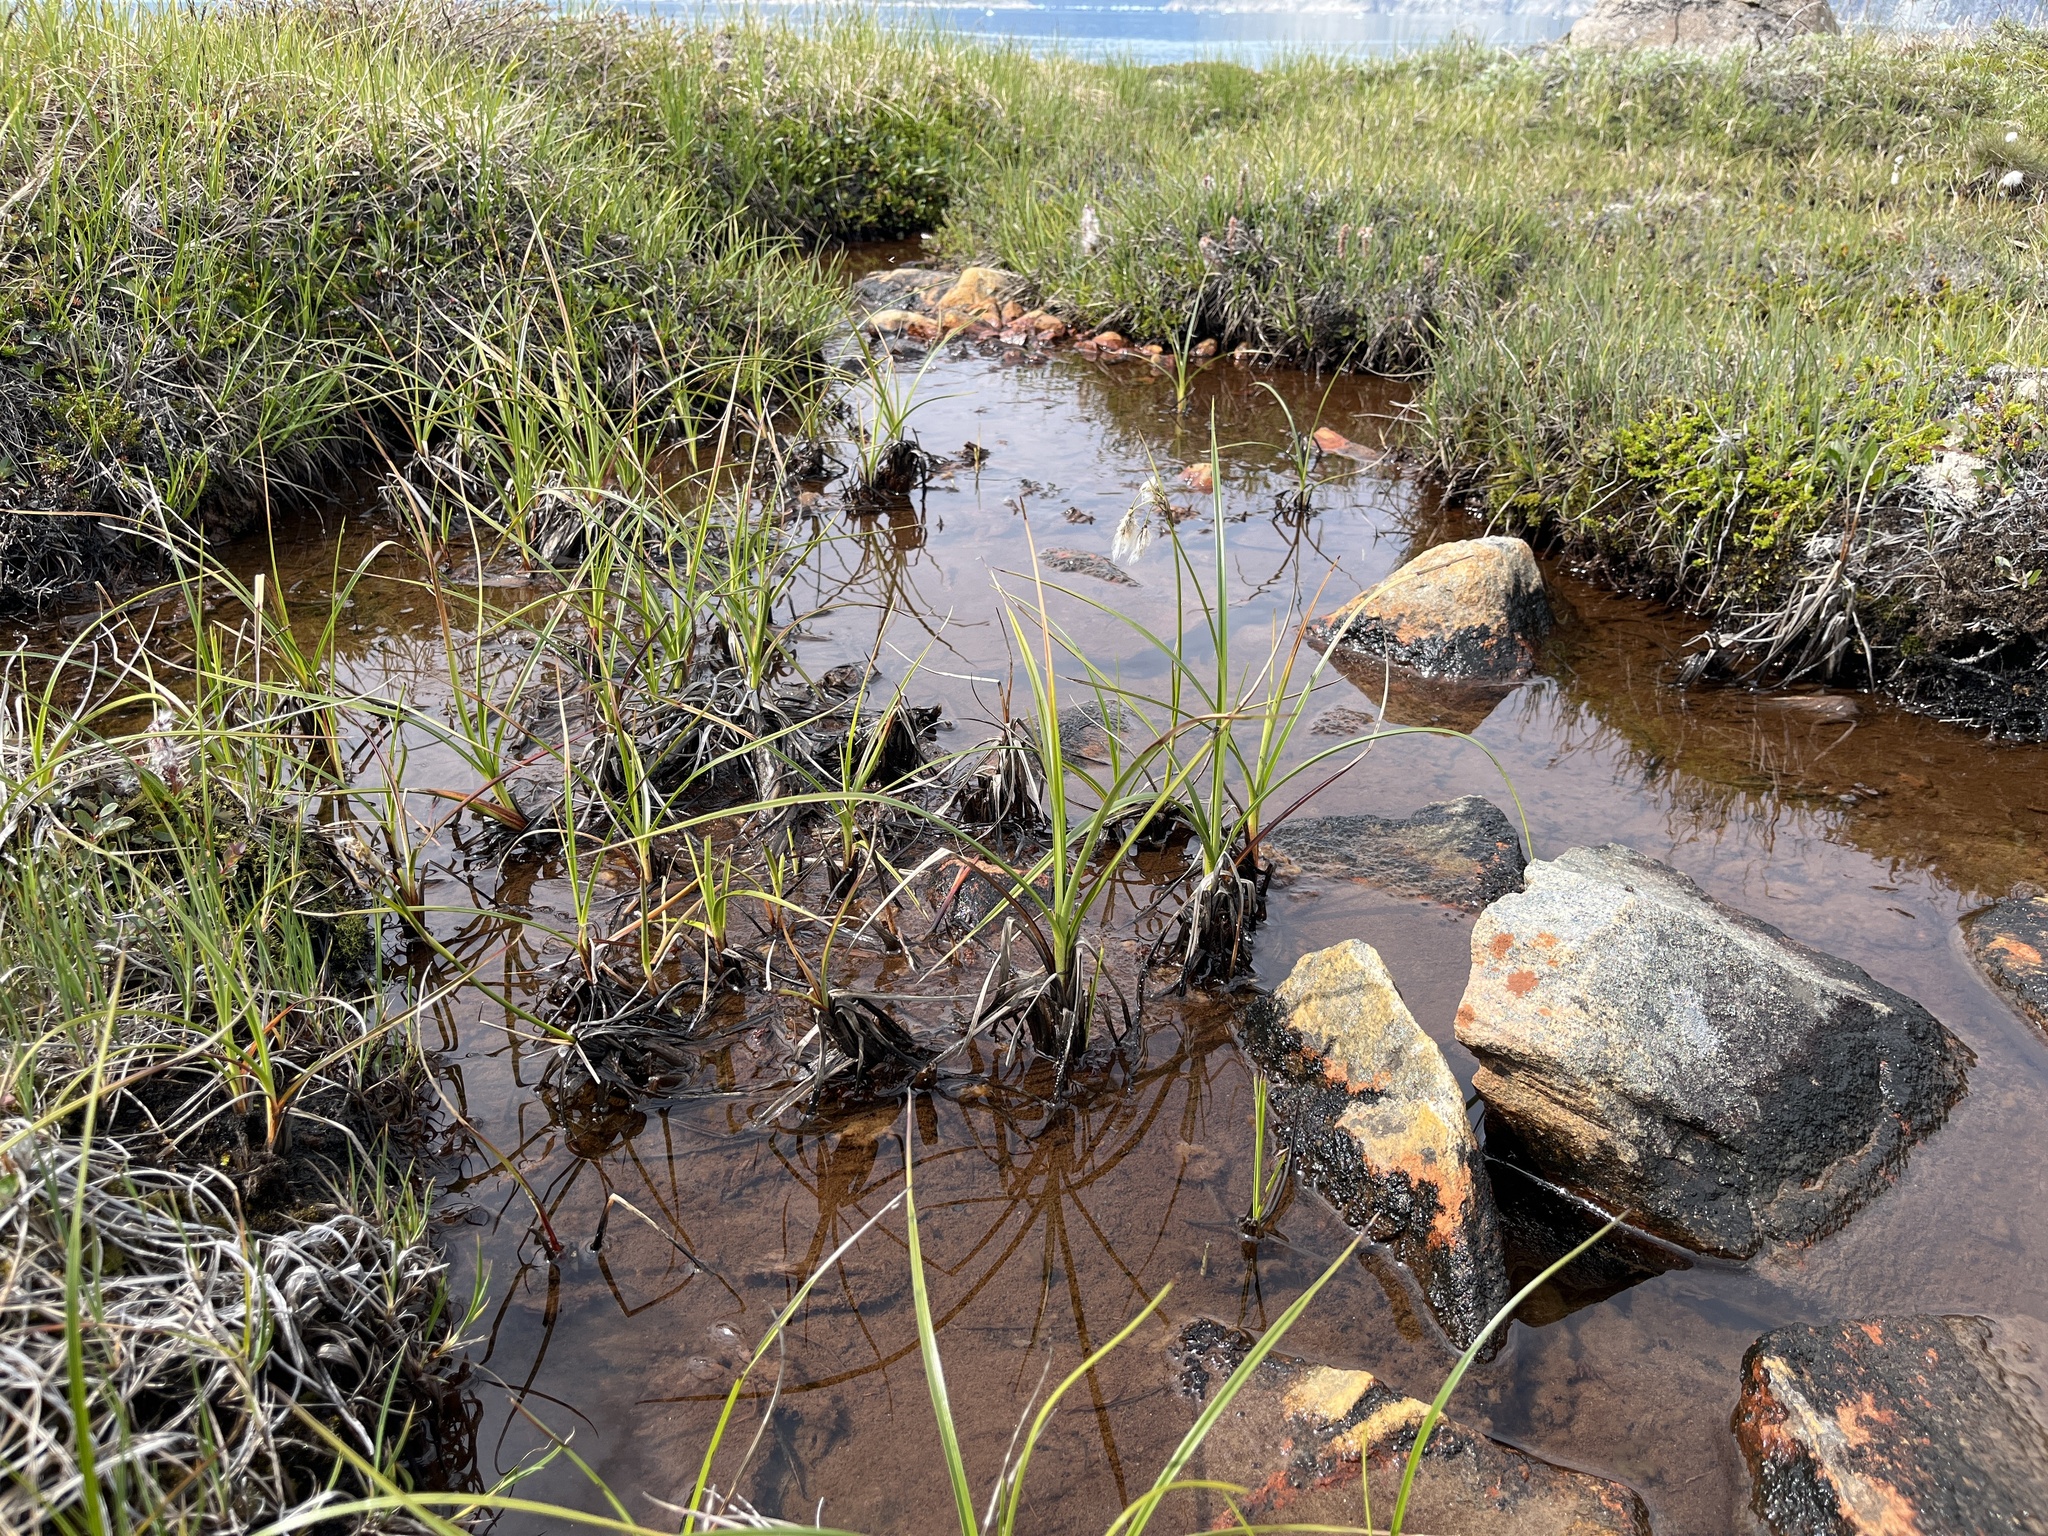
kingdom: Plantae
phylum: Tracheophyta
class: Liliopsida
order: Poales
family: Cyperaceae
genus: Eriophorum
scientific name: Eriophorum angustifolium
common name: Common cottongrass
